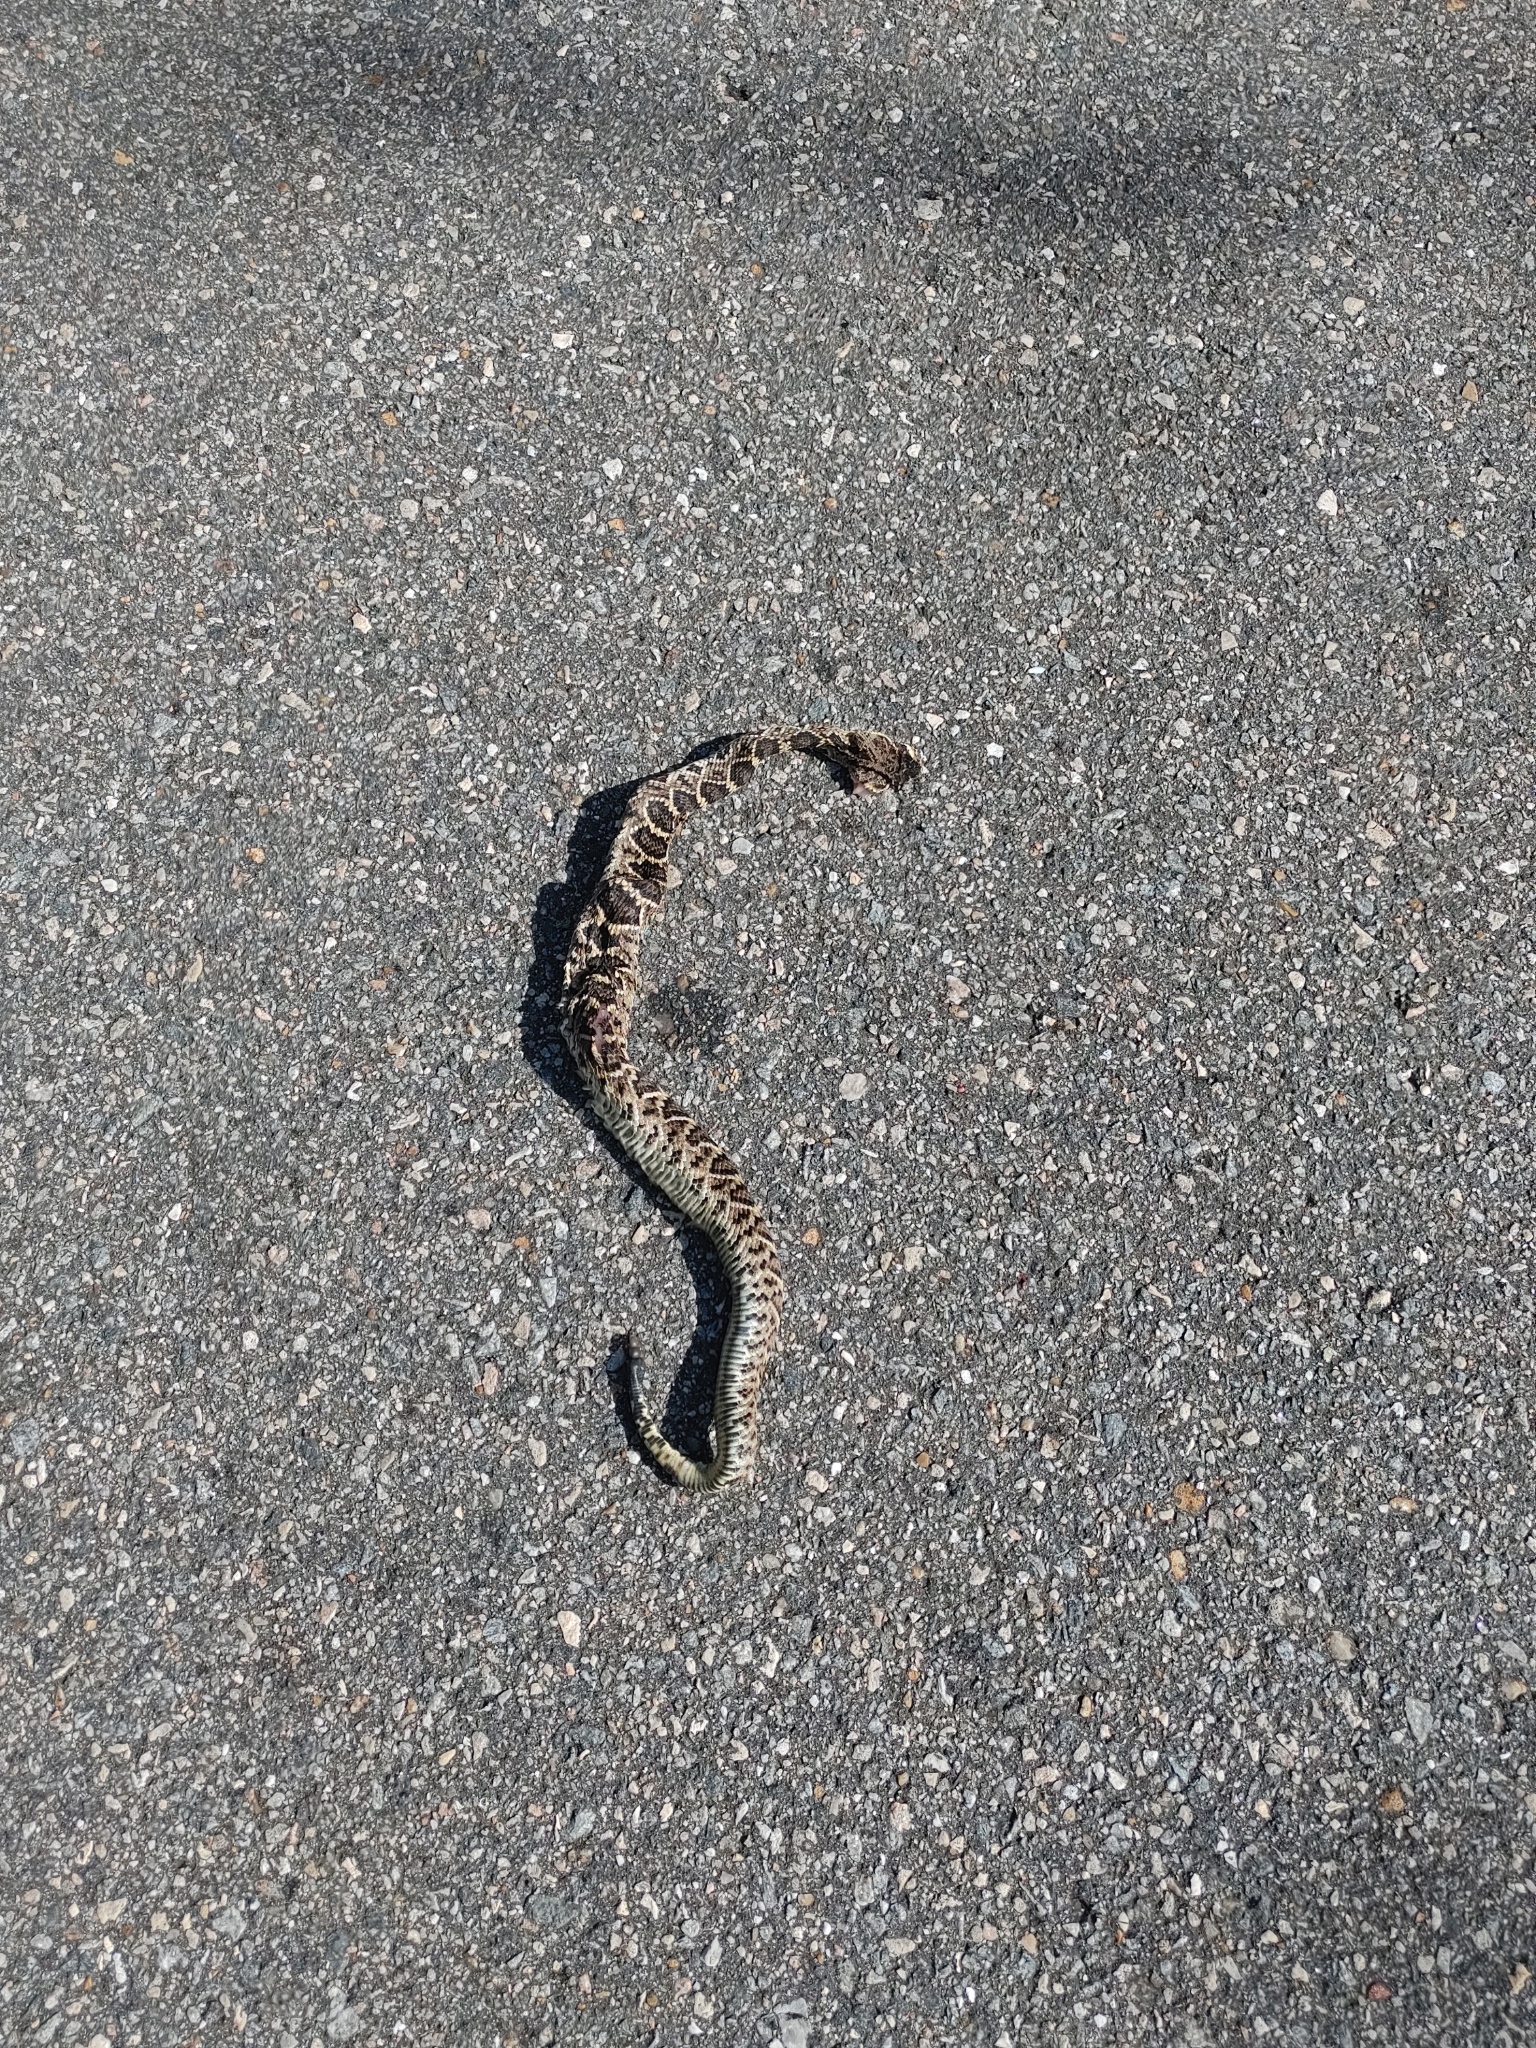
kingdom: Animalia
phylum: Chordata
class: Squamata
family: Viperidae
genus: Crotalus
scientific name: Crotalus adamanteus
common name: Eastern diamondback rattlesnake
